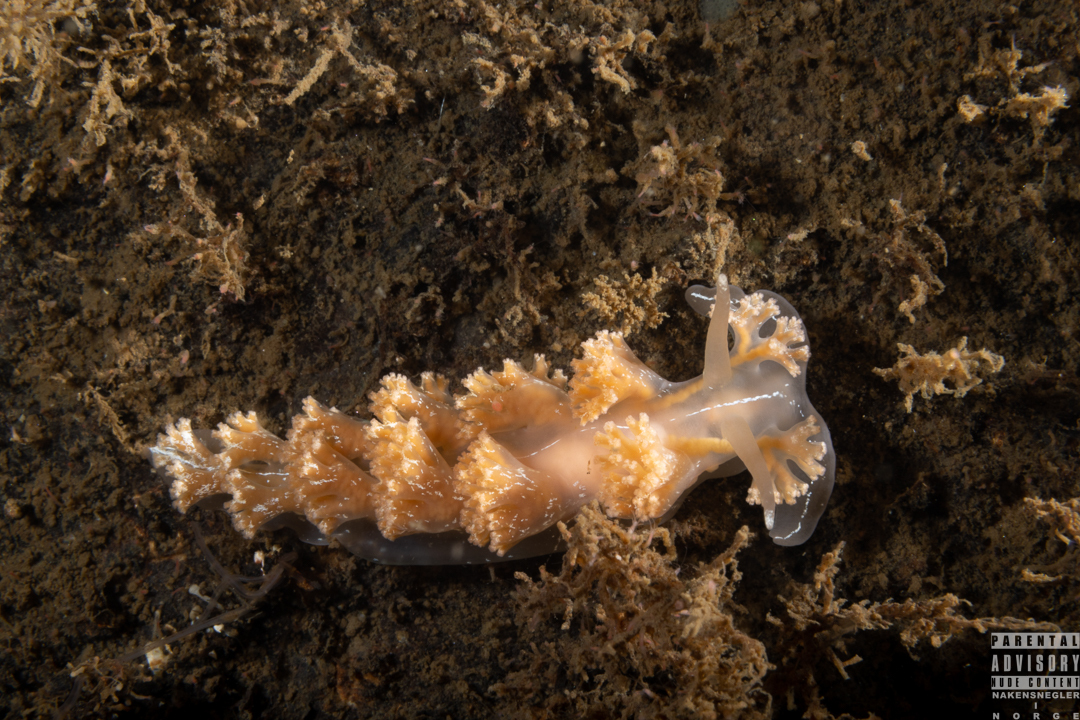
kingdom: Animalia
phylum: Mollusca
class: Gastropoda
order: Nudibranchia
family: Heroidae
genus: Hero
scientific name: Hero formosa
